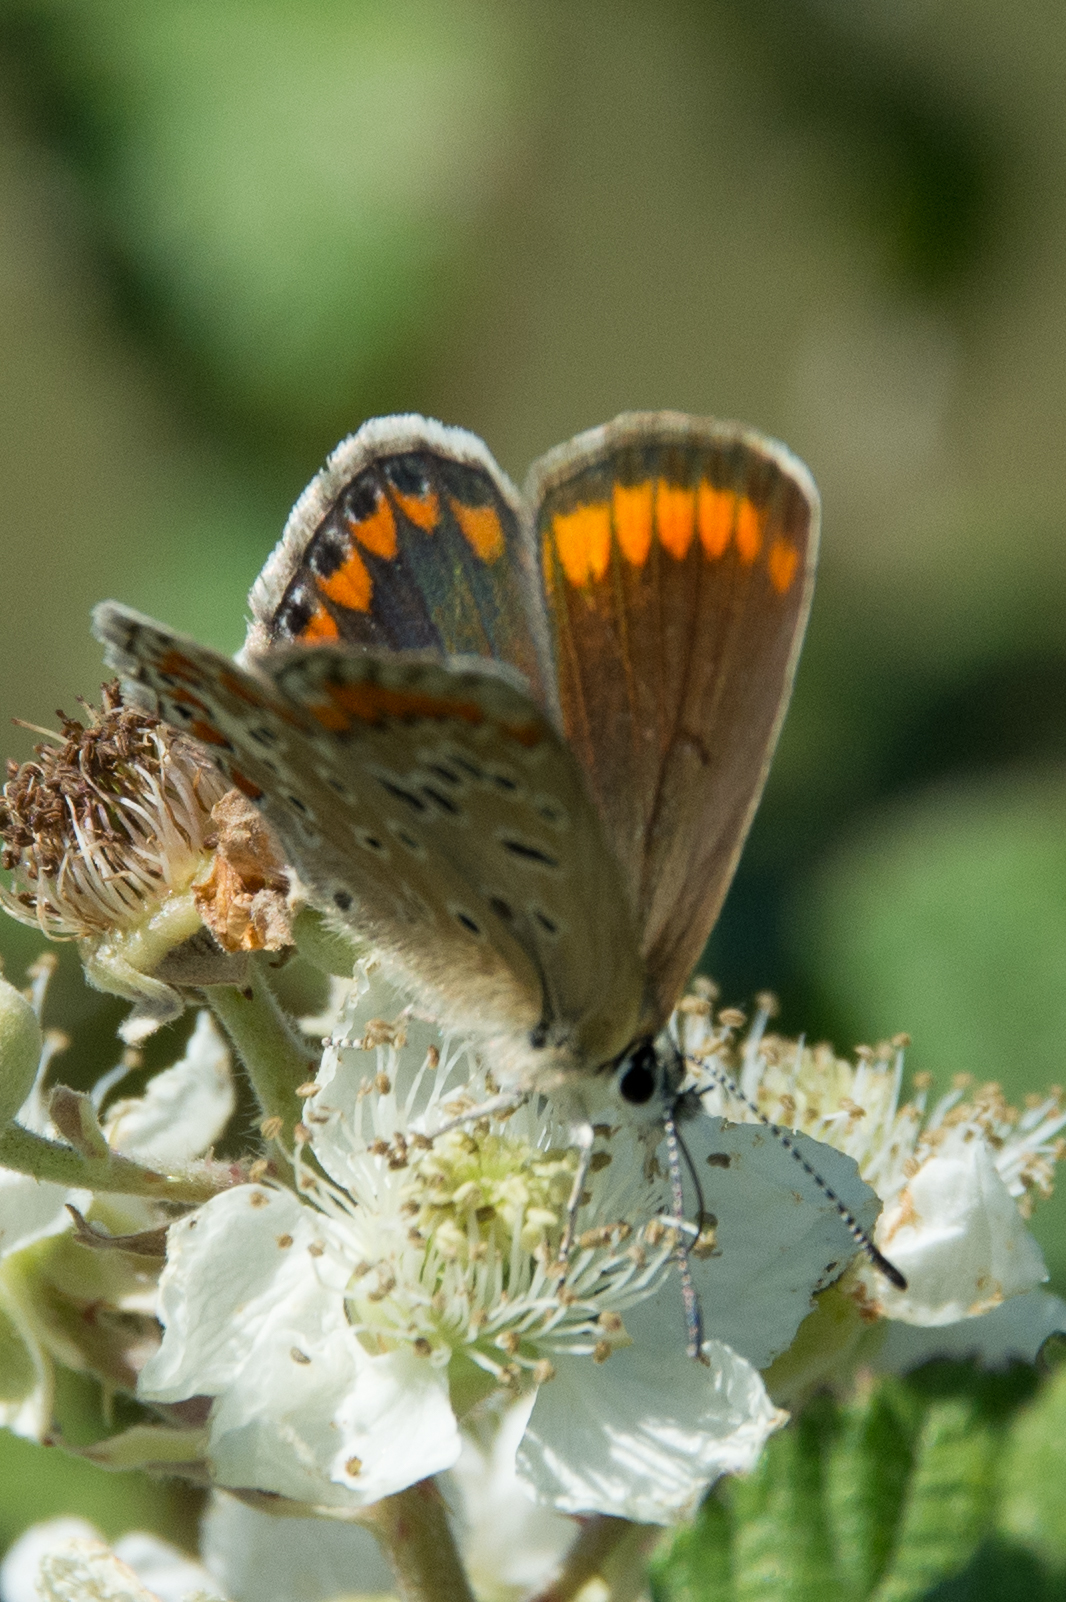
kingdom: Animalia
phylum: Arthropoda
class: Insecta
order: Lepidoptera
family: Lycaenidae
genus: Polyommatus
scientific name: Polyommatus celina
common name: Austaut's blue
